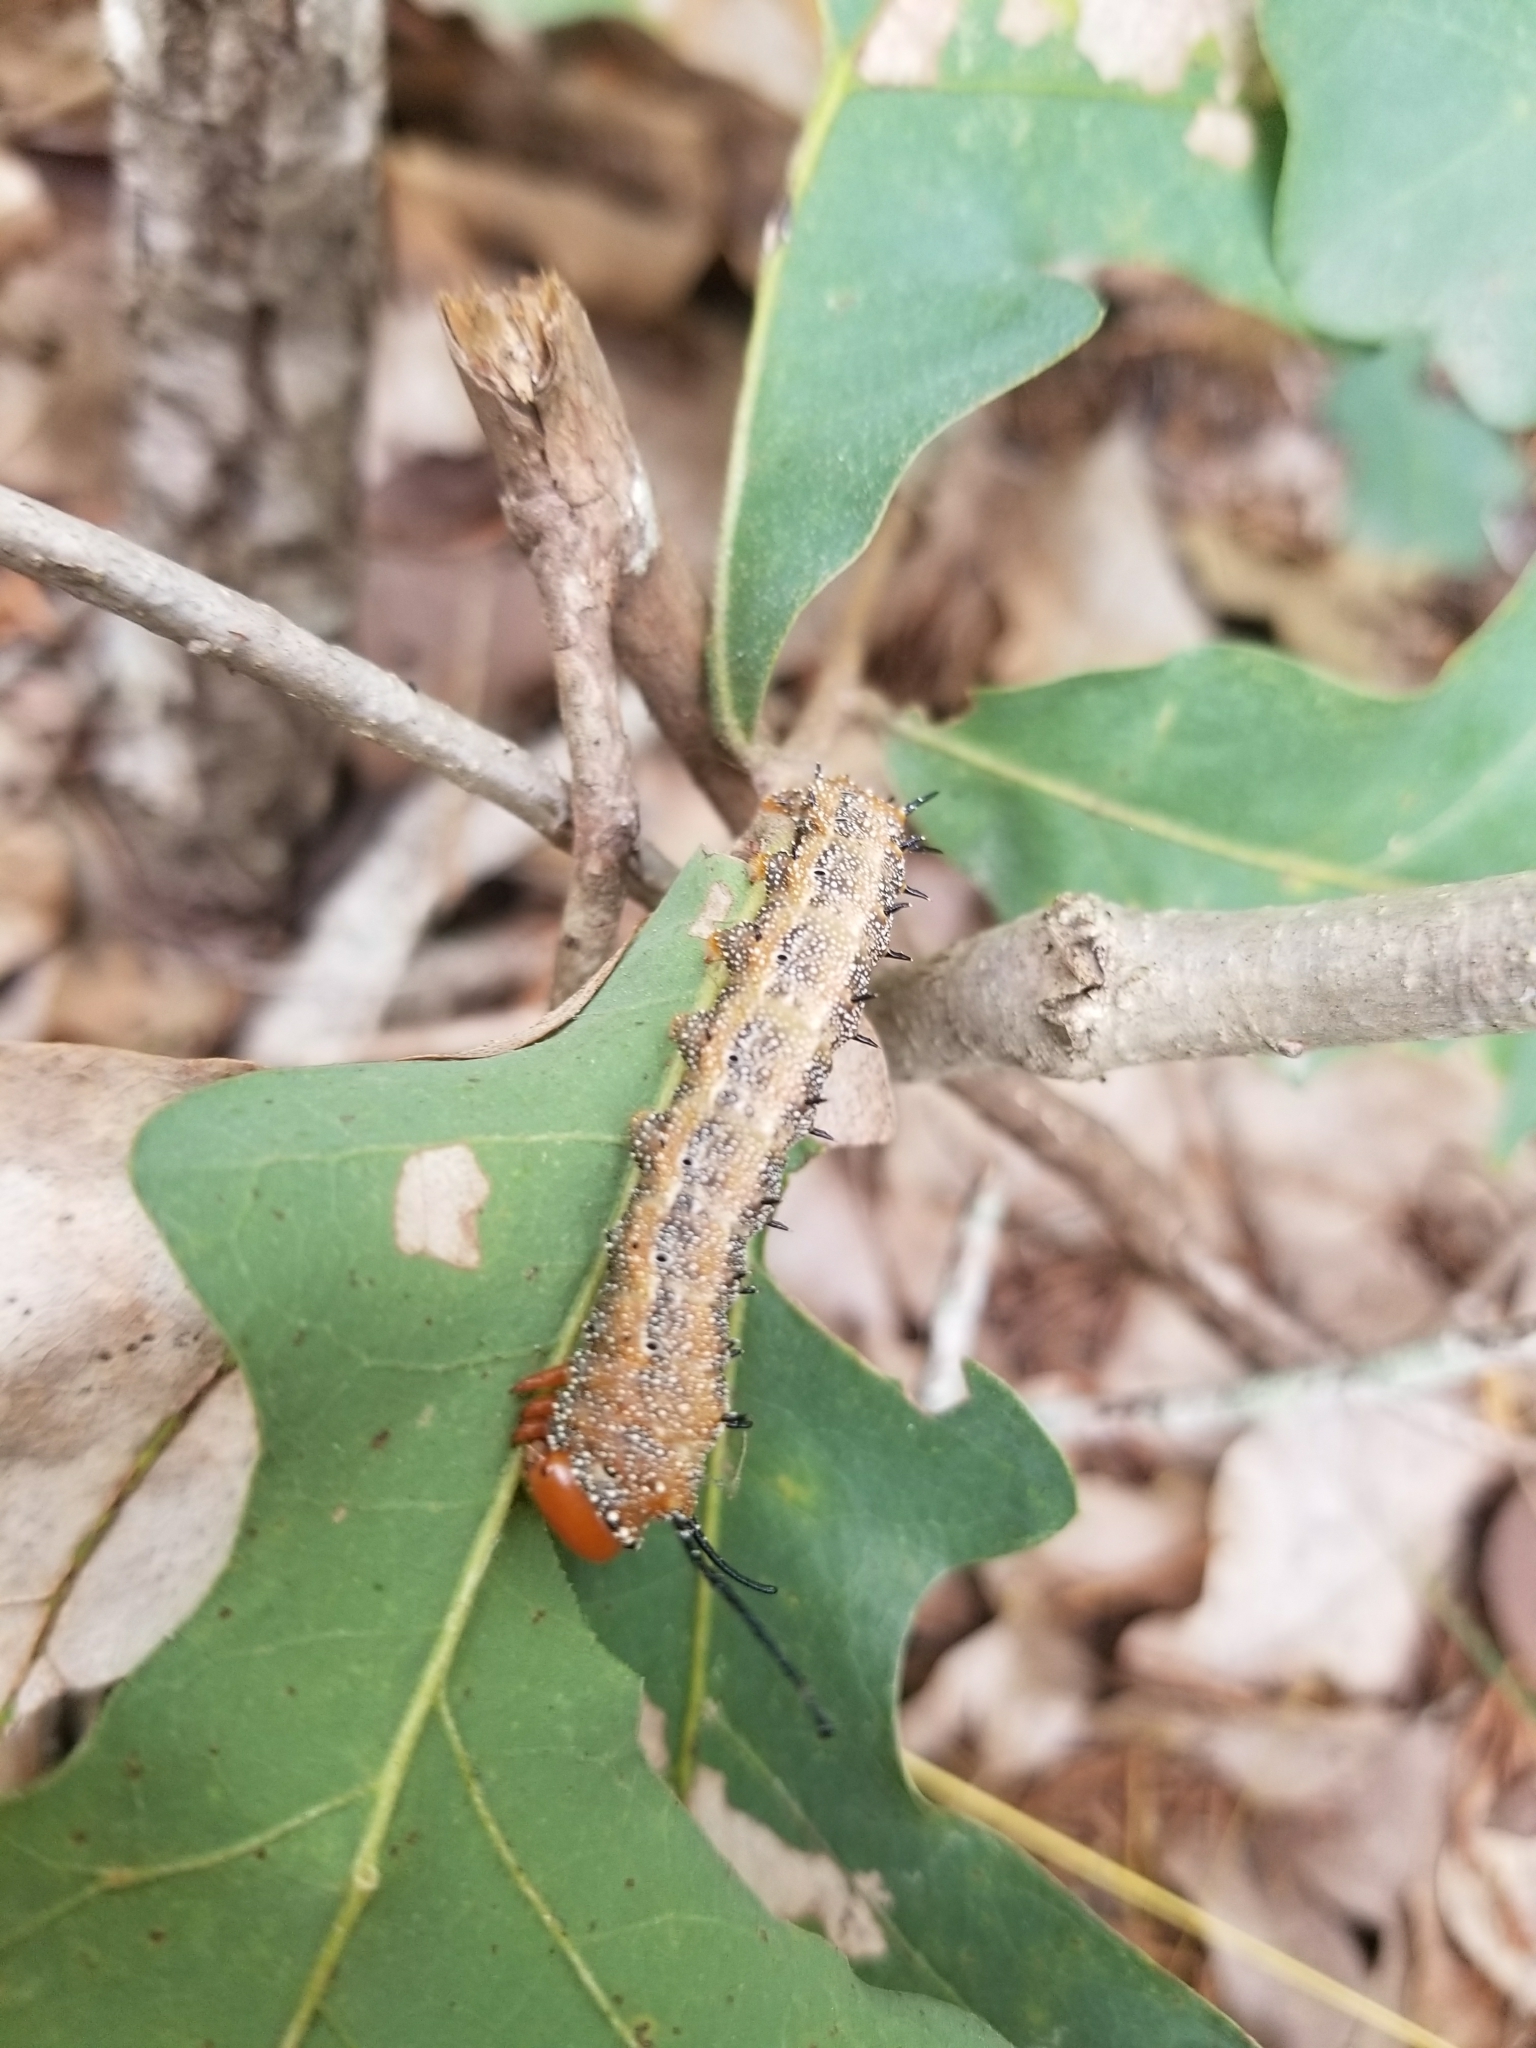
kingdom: Animalia
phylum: Arthropoda
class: Insecta
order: Lepidoptera
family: Saturniidae
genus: Anisota
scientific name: Anisota stigma
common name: Spiny oakworm moth
